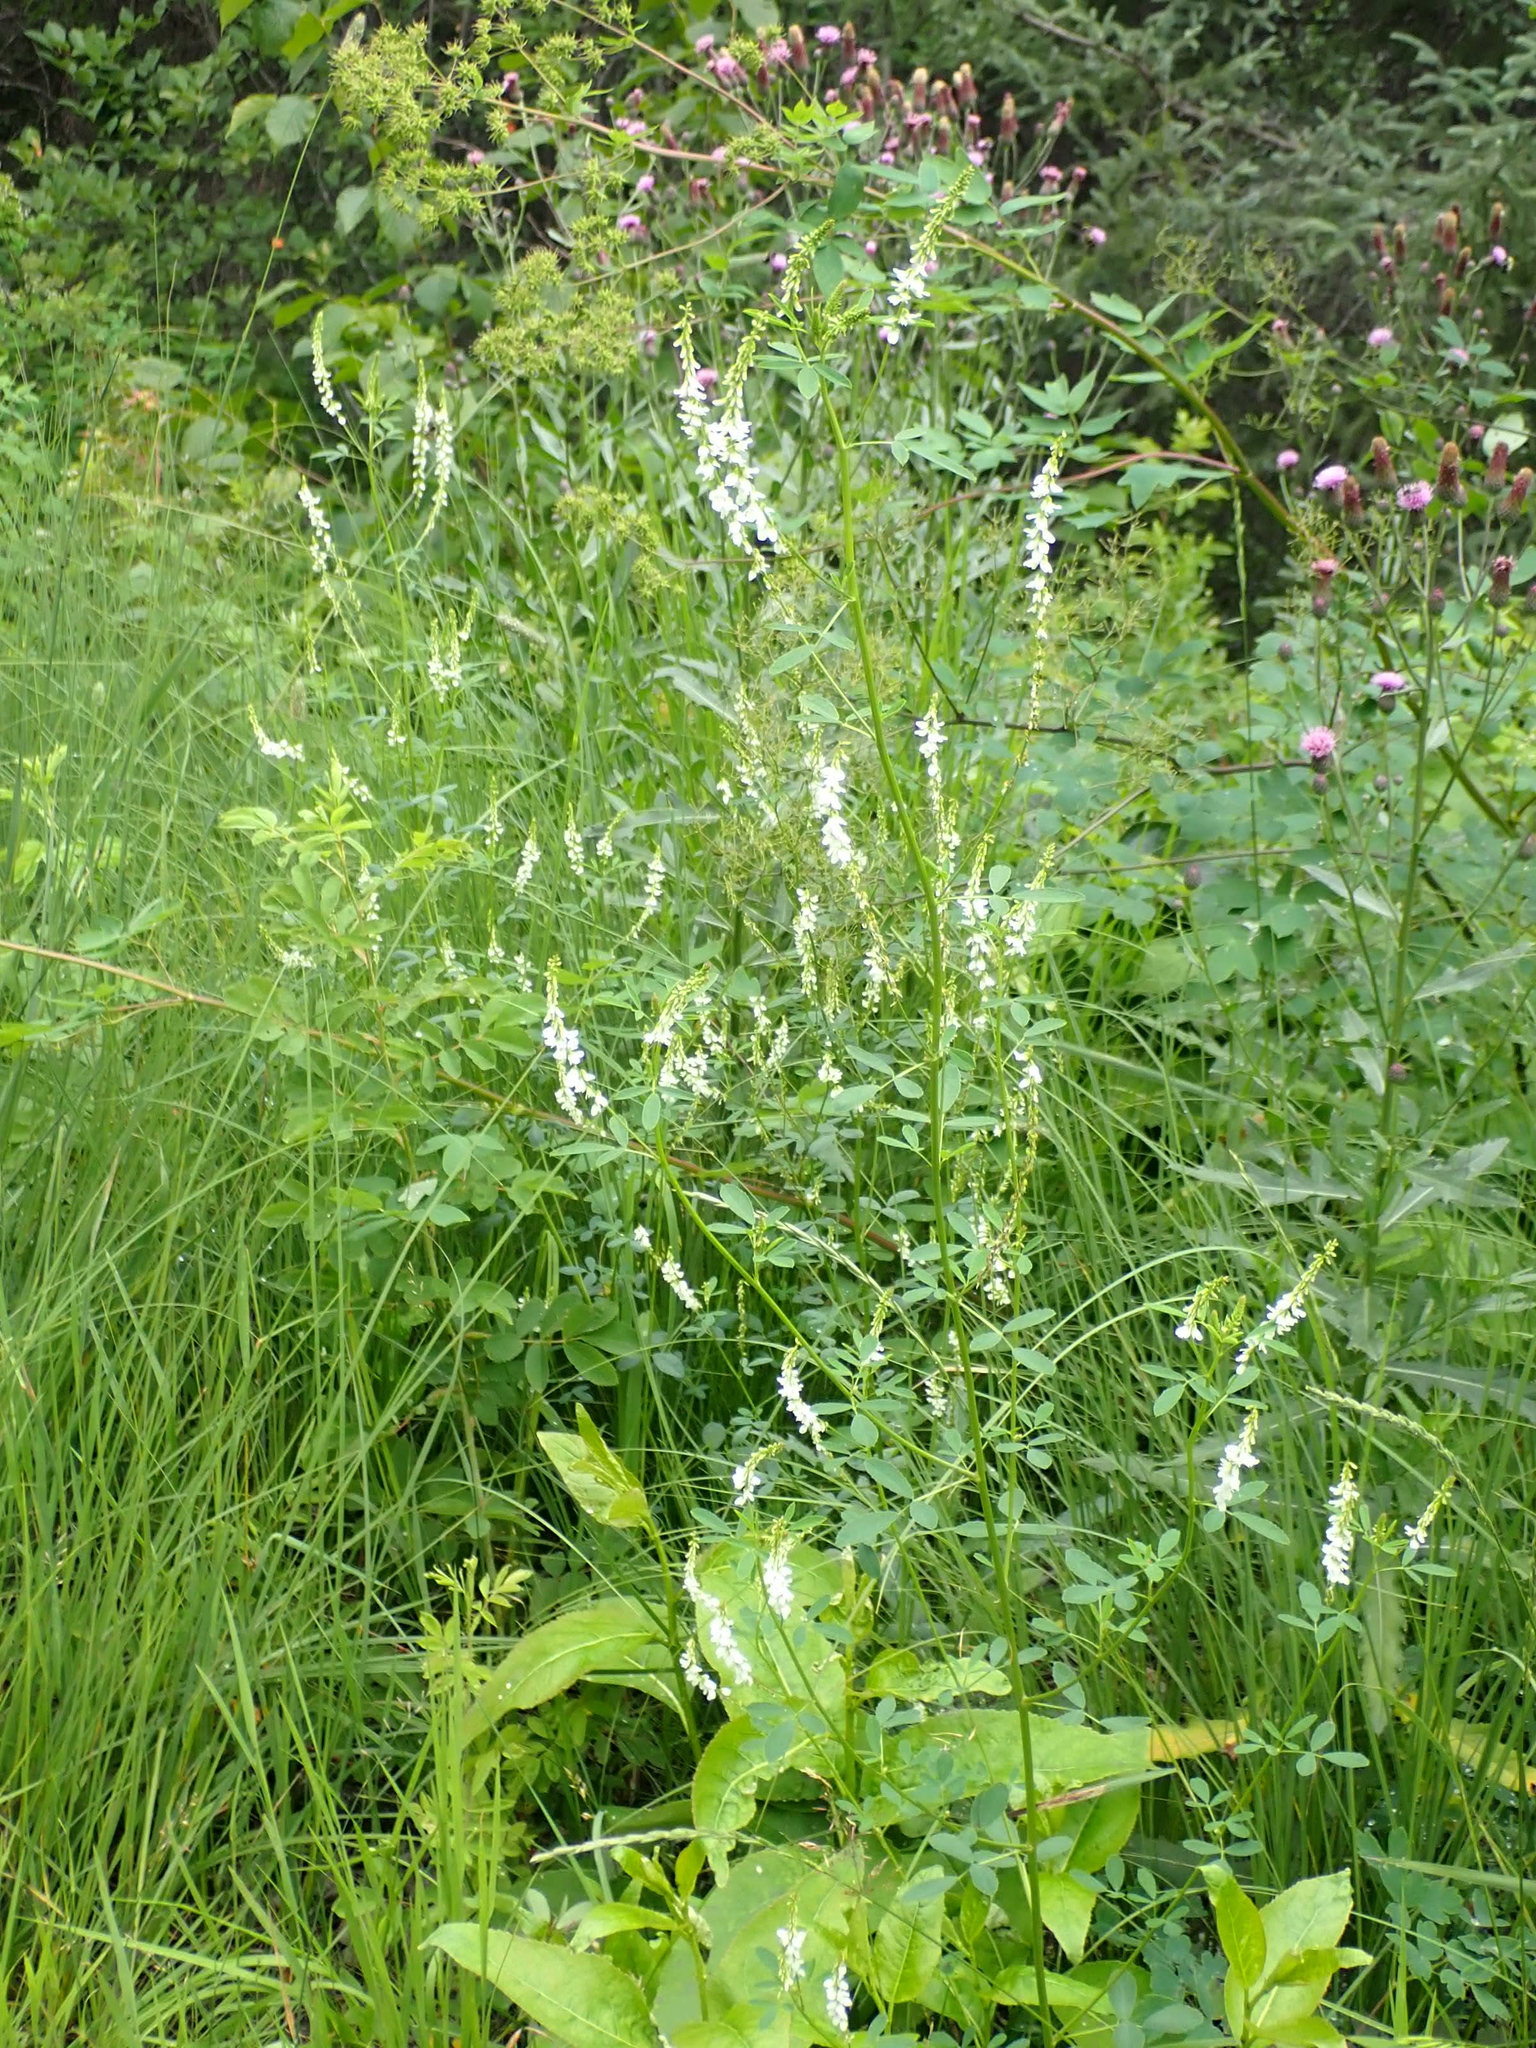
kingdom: Plantae
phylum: Tracheophyta
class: Magnoliopsida
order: Fabales
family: Fabaceae
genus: Melilotus
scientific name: Melilotus albus
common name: White melilot
